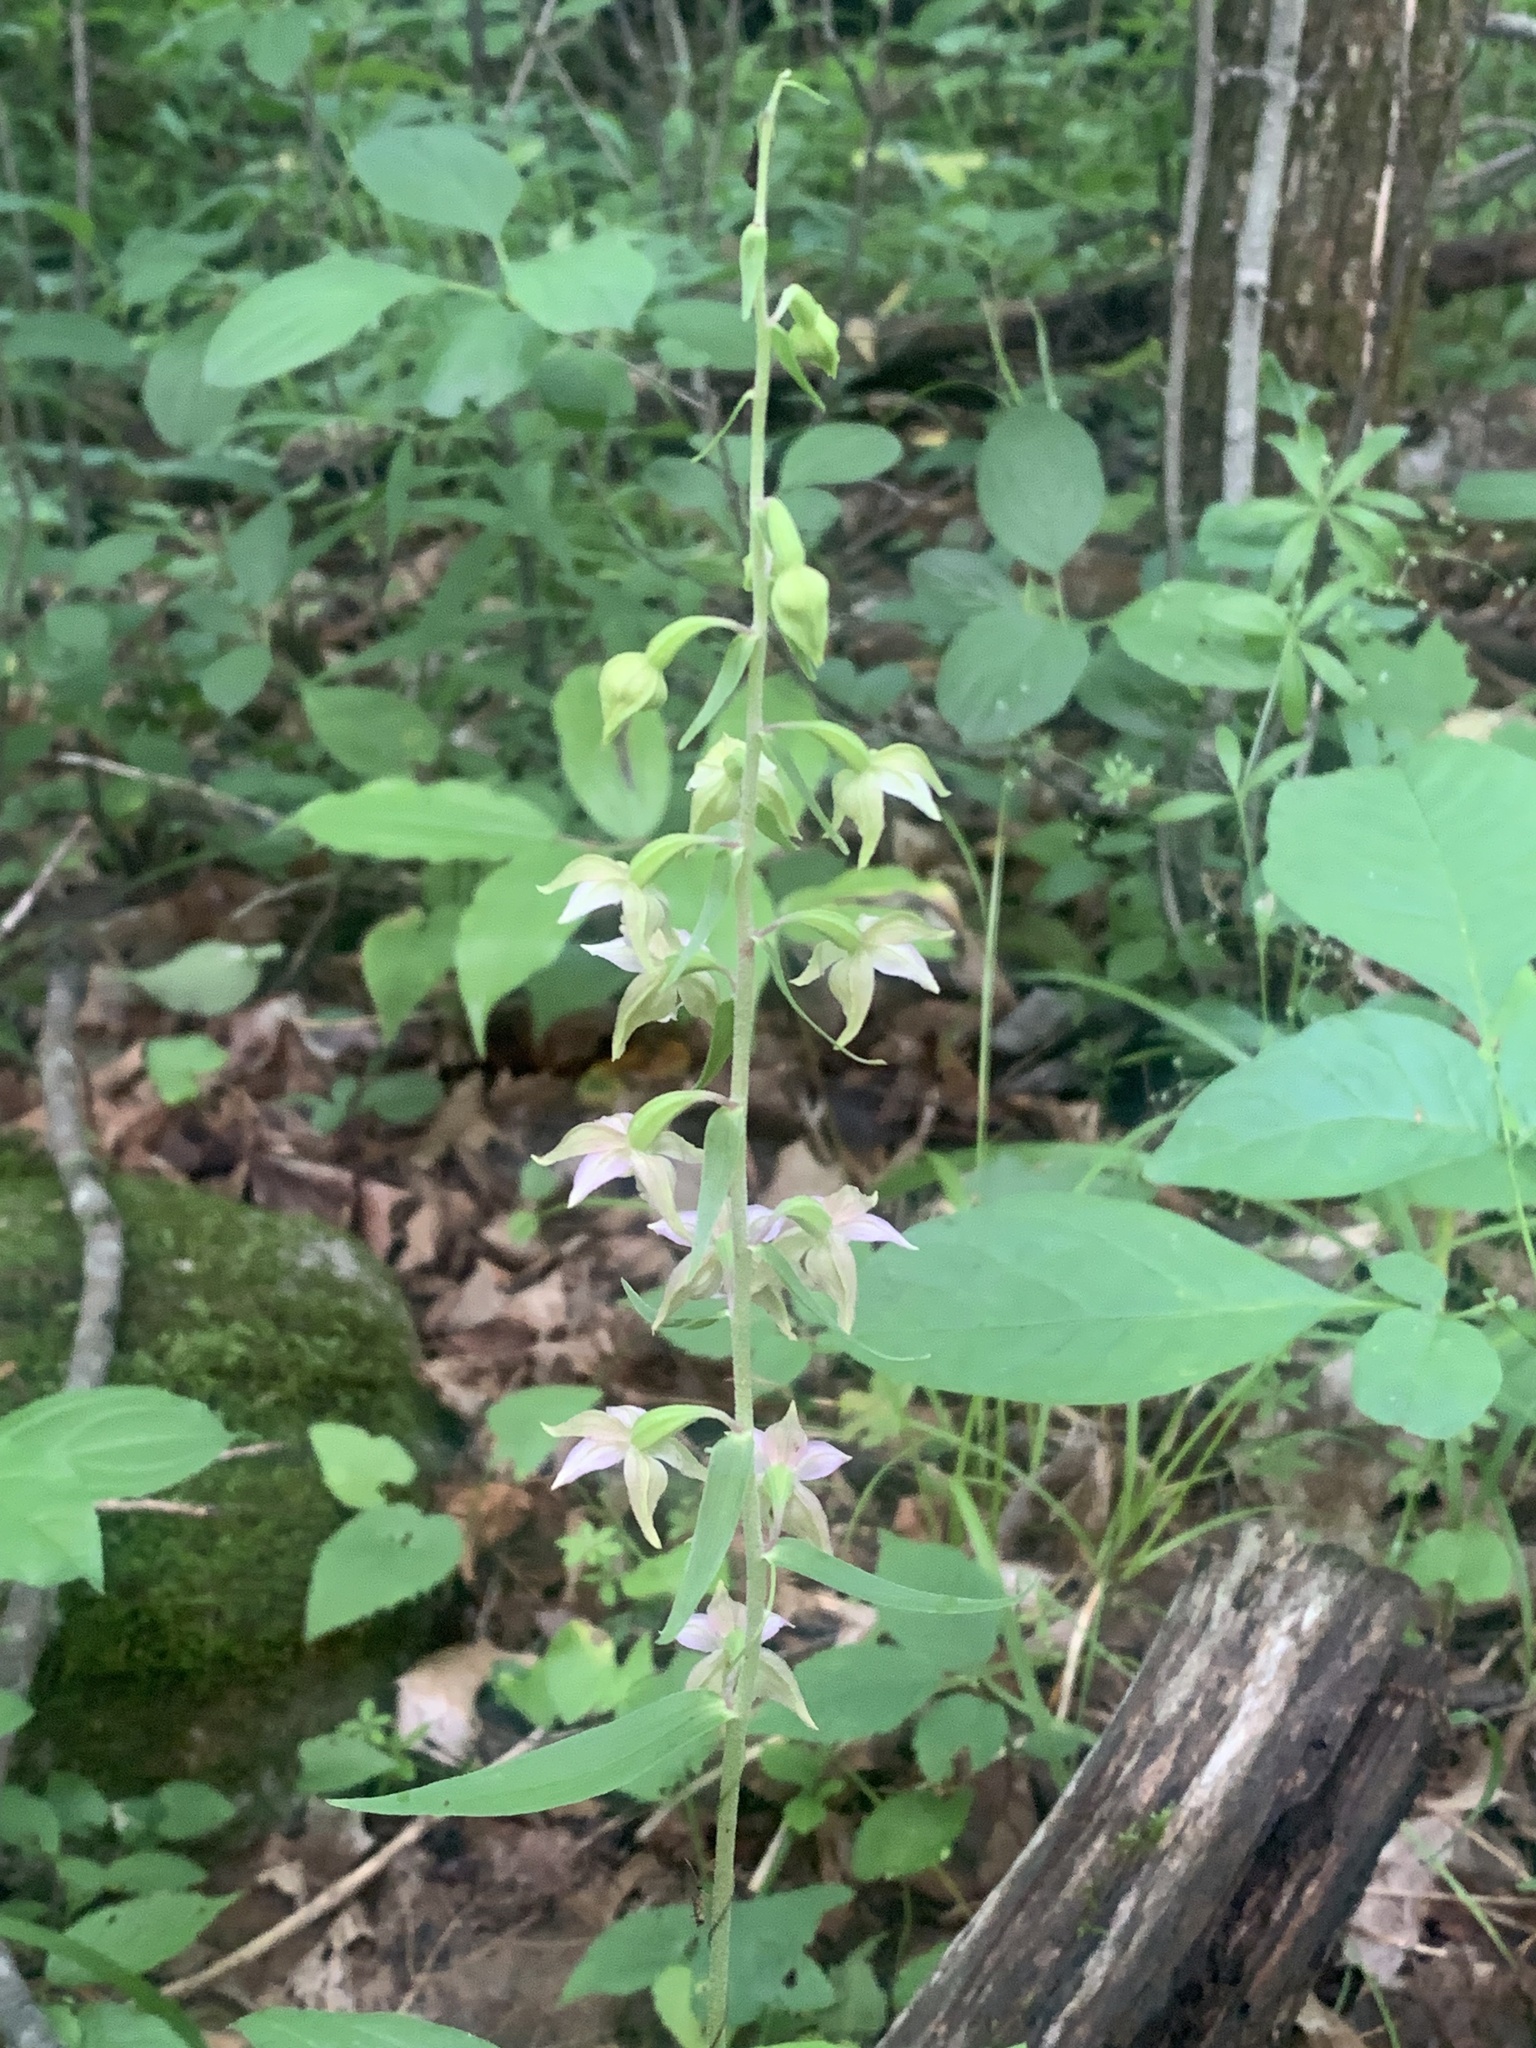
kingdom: Plantae
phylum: Tracheophyta
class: Liliopsida
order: Asparagales
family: Orchidaceae
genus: Epipactis
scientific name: Epipactis helleborine
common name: Broad-leaved helleborine
